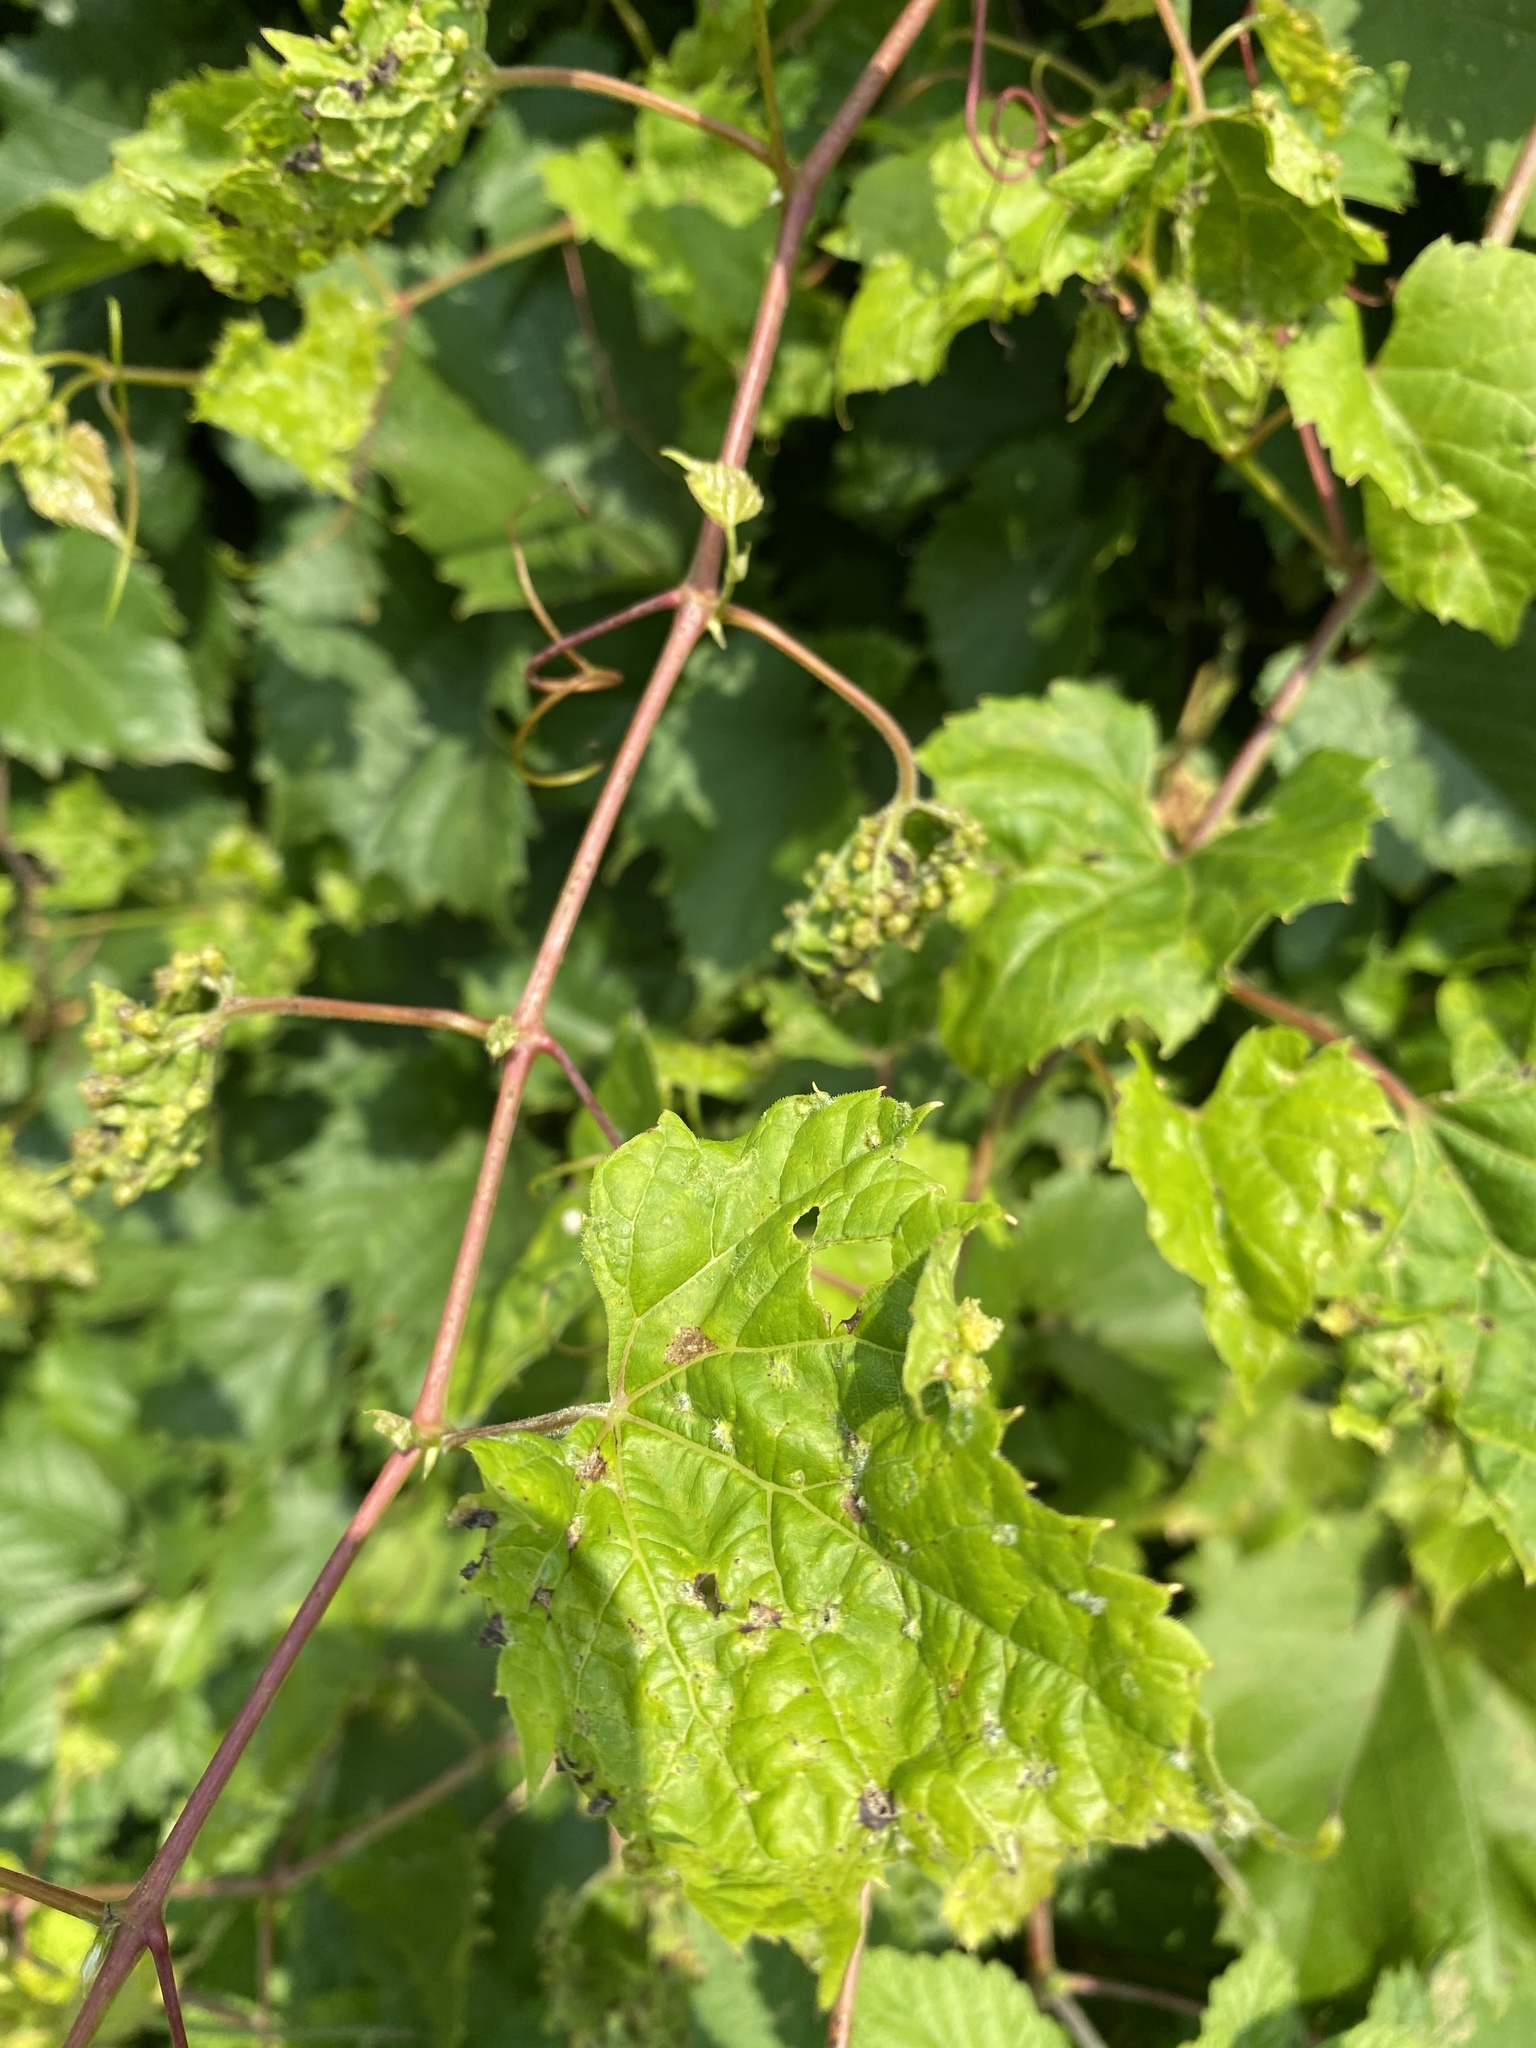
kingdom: Animalia
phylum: Arthropoda
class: Insecta
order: Hemiptera
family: Phylloxeridae
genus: Daktulosphaira
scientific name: Daktulosphaira vitifoliae
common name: Grape phylloxera
